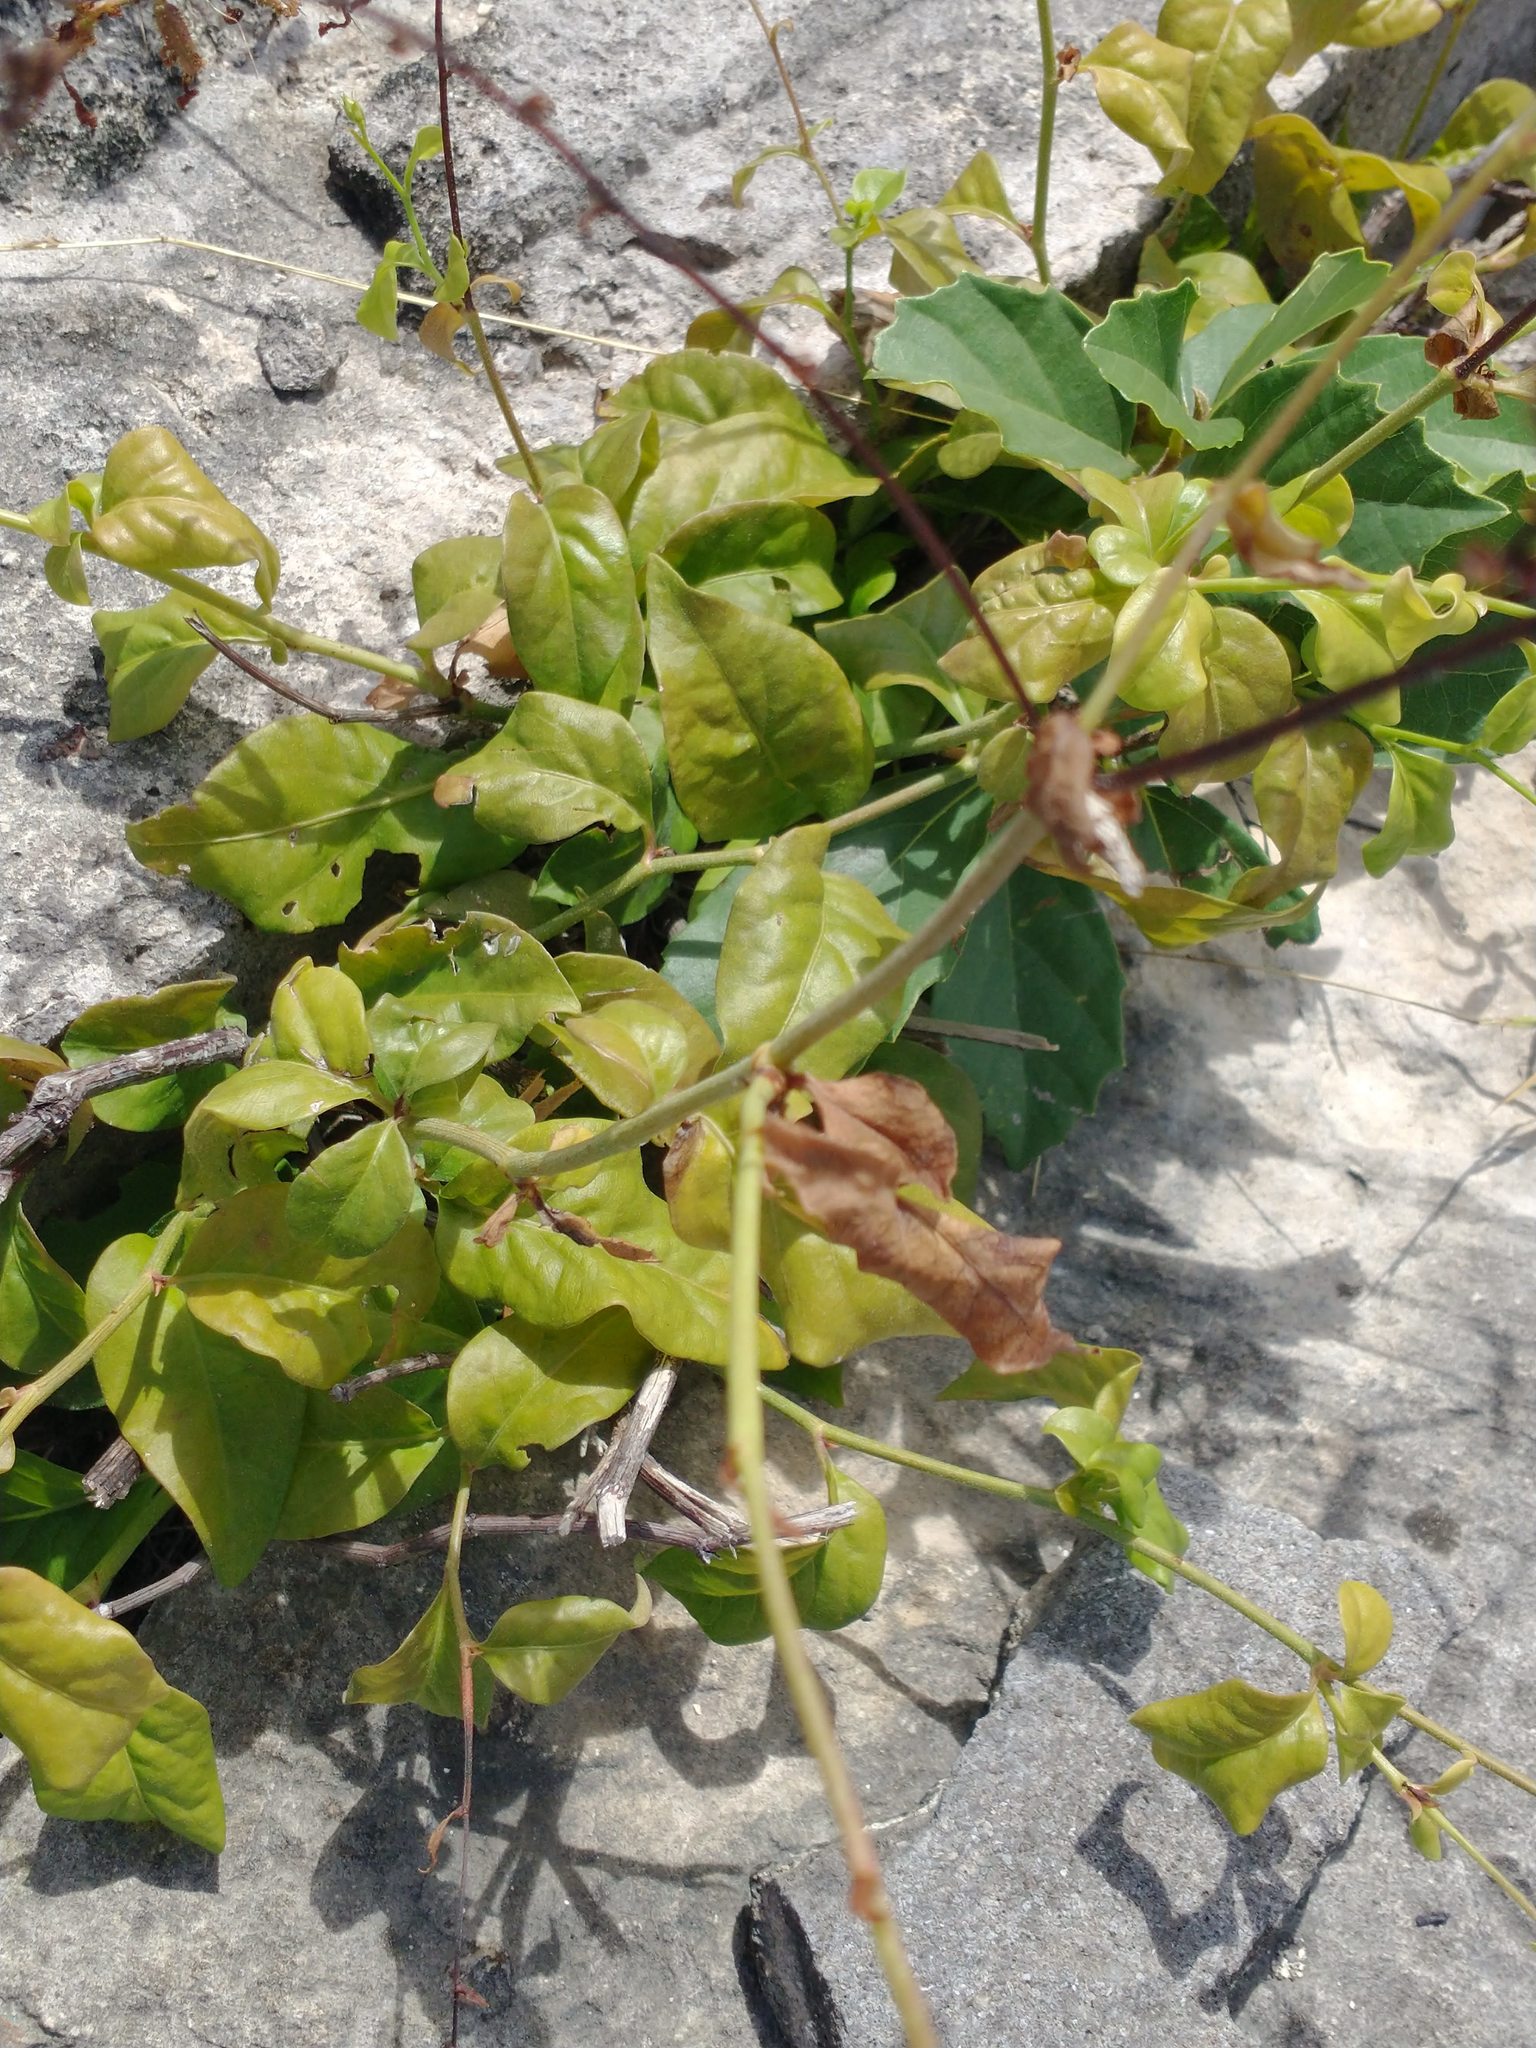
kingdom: Plantae
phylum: Tracheophyta
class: Magnoliopsida
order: Caryophyllales
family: Plumbaginaceae
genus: Plumbago
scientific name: Plumbago zeylanica
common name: Doctorbush
